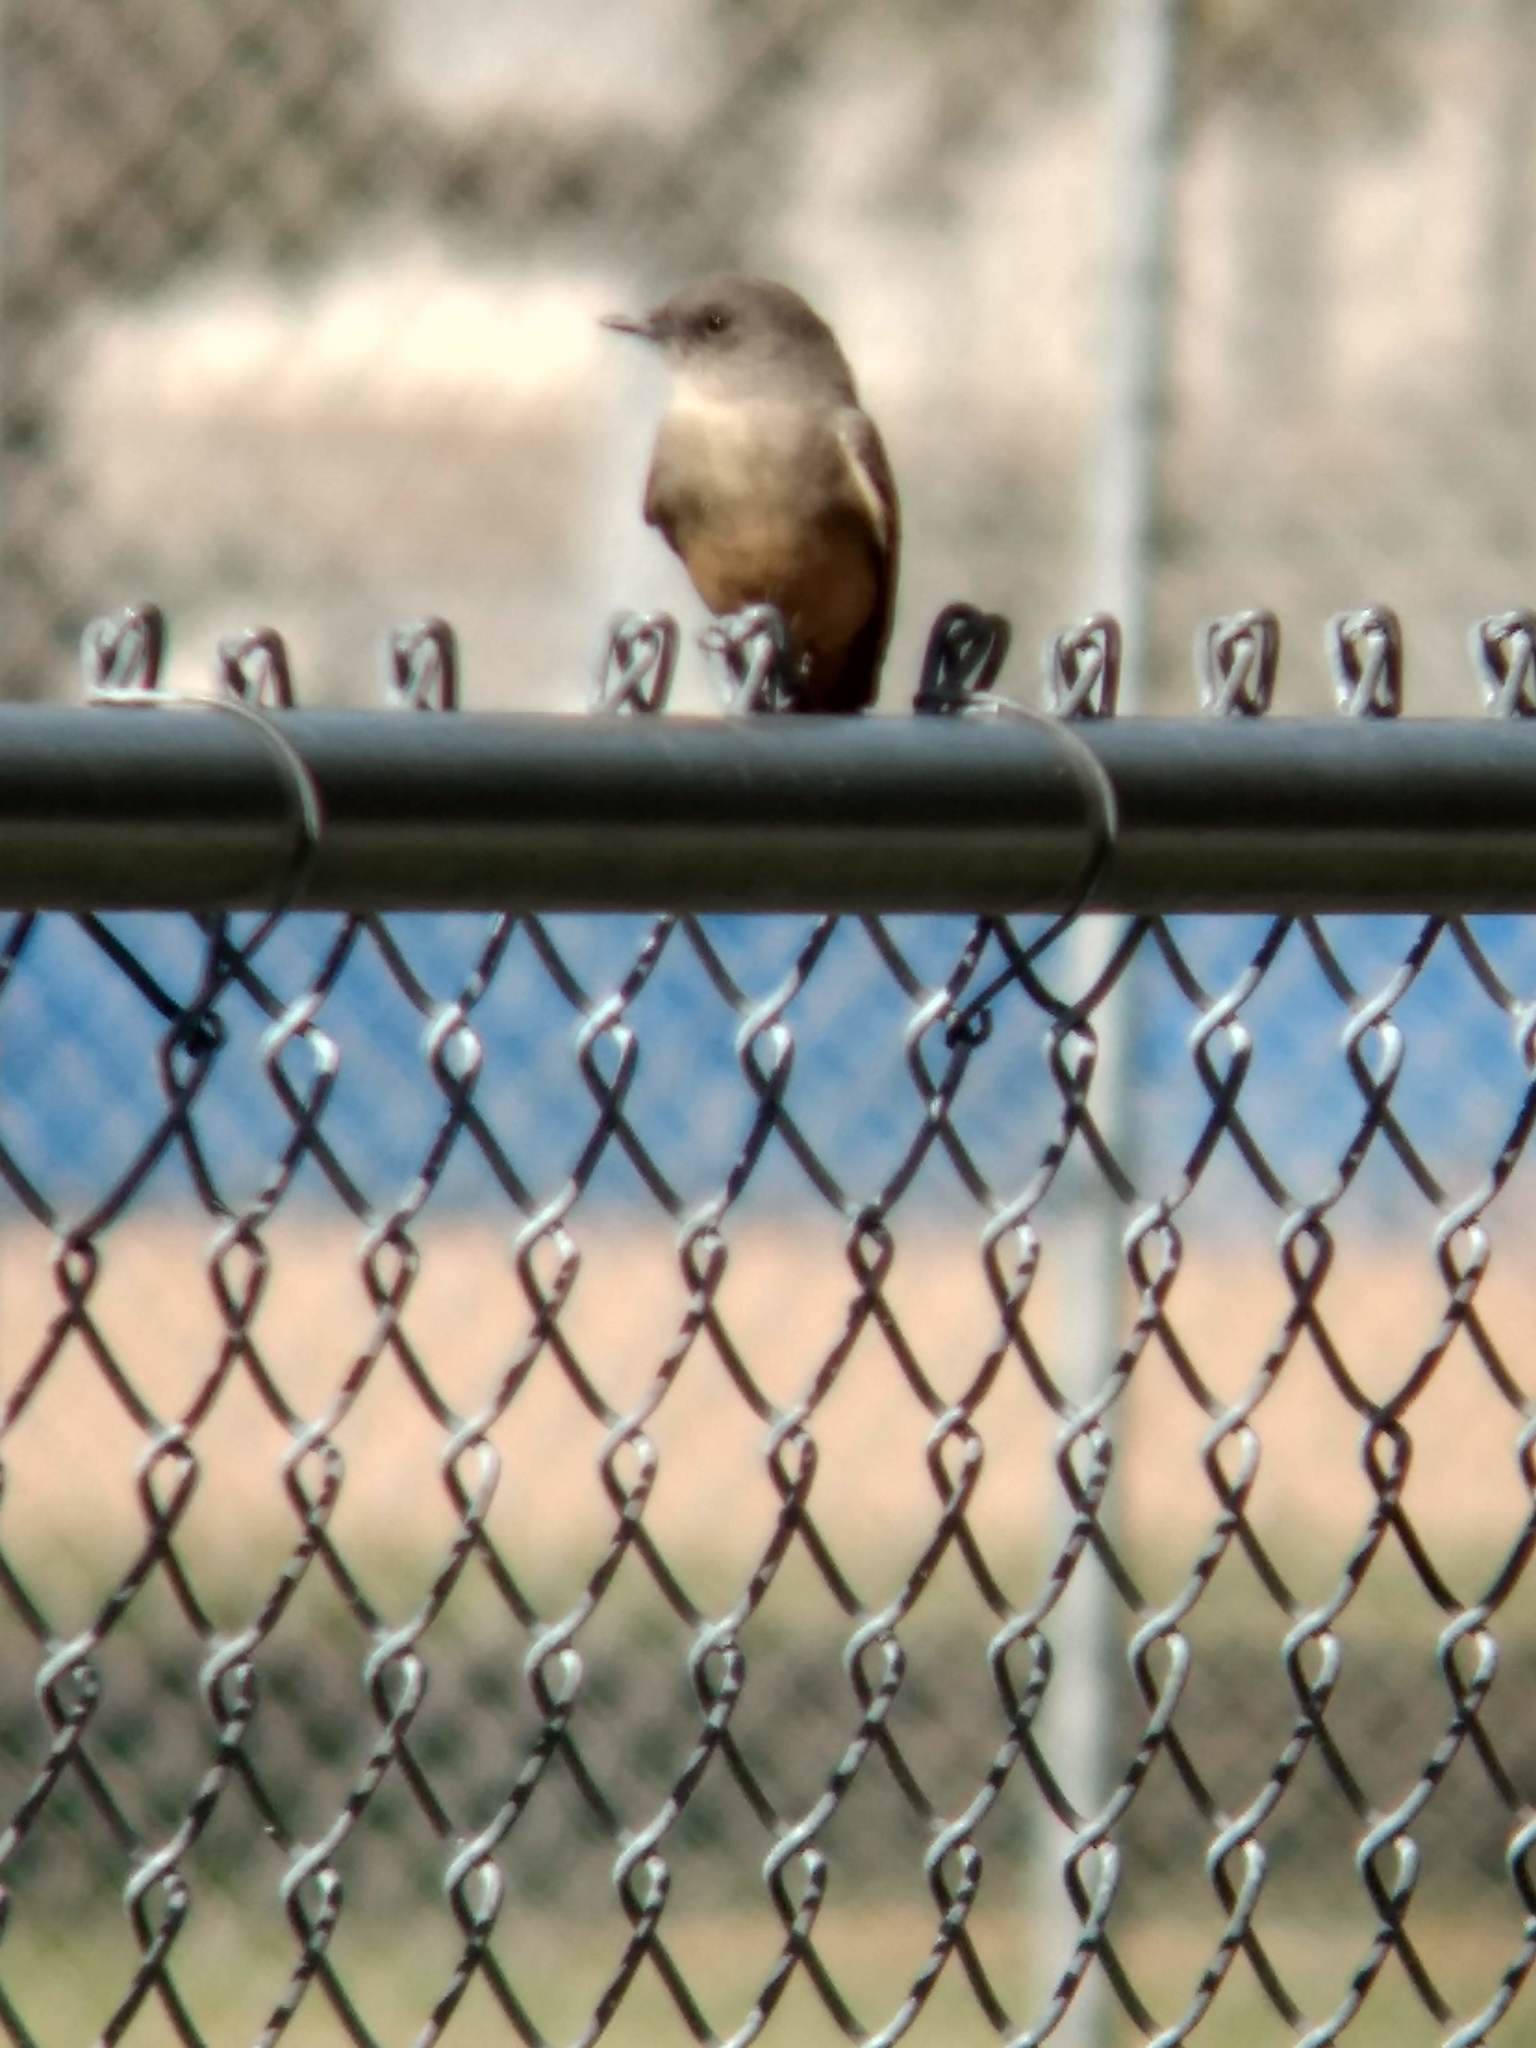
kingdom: Animalia
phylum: Chordata
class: Aves
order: Passeriformes
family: Tyrannidae
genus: Sayornis
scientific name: Sayornis saya
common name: Say's phoebe
